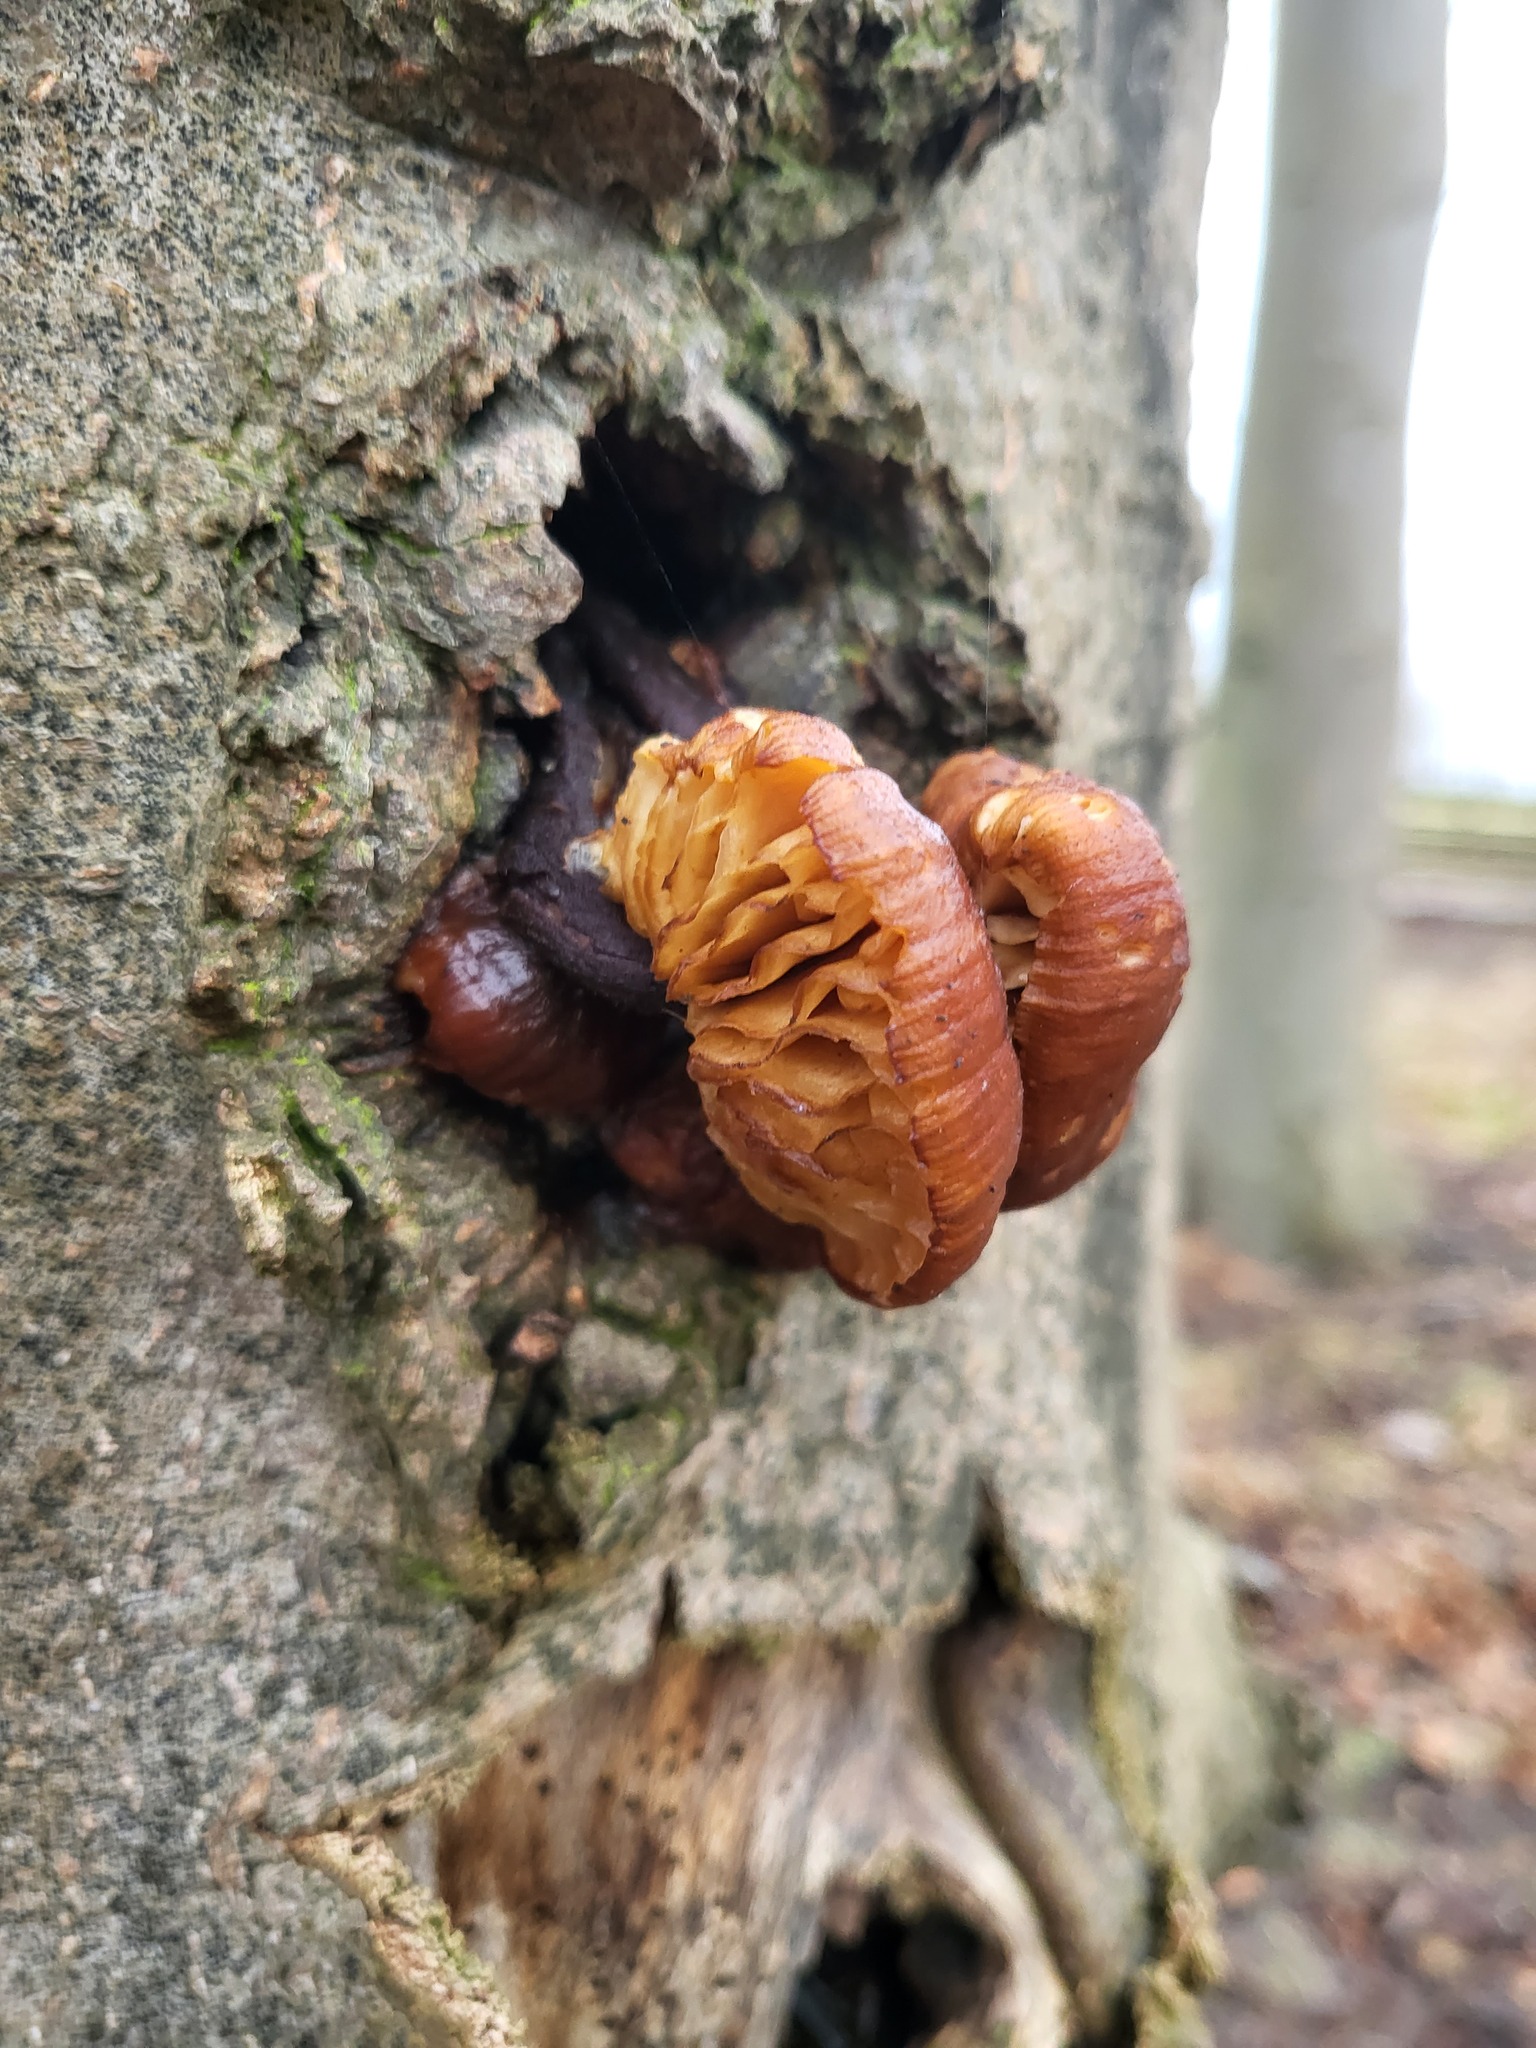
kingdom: Fungi
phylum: Basidiomycota
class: Agaricomycetes
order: Agaricales
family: Physalacriaceae
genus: Flammulina
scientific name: Flammulina
